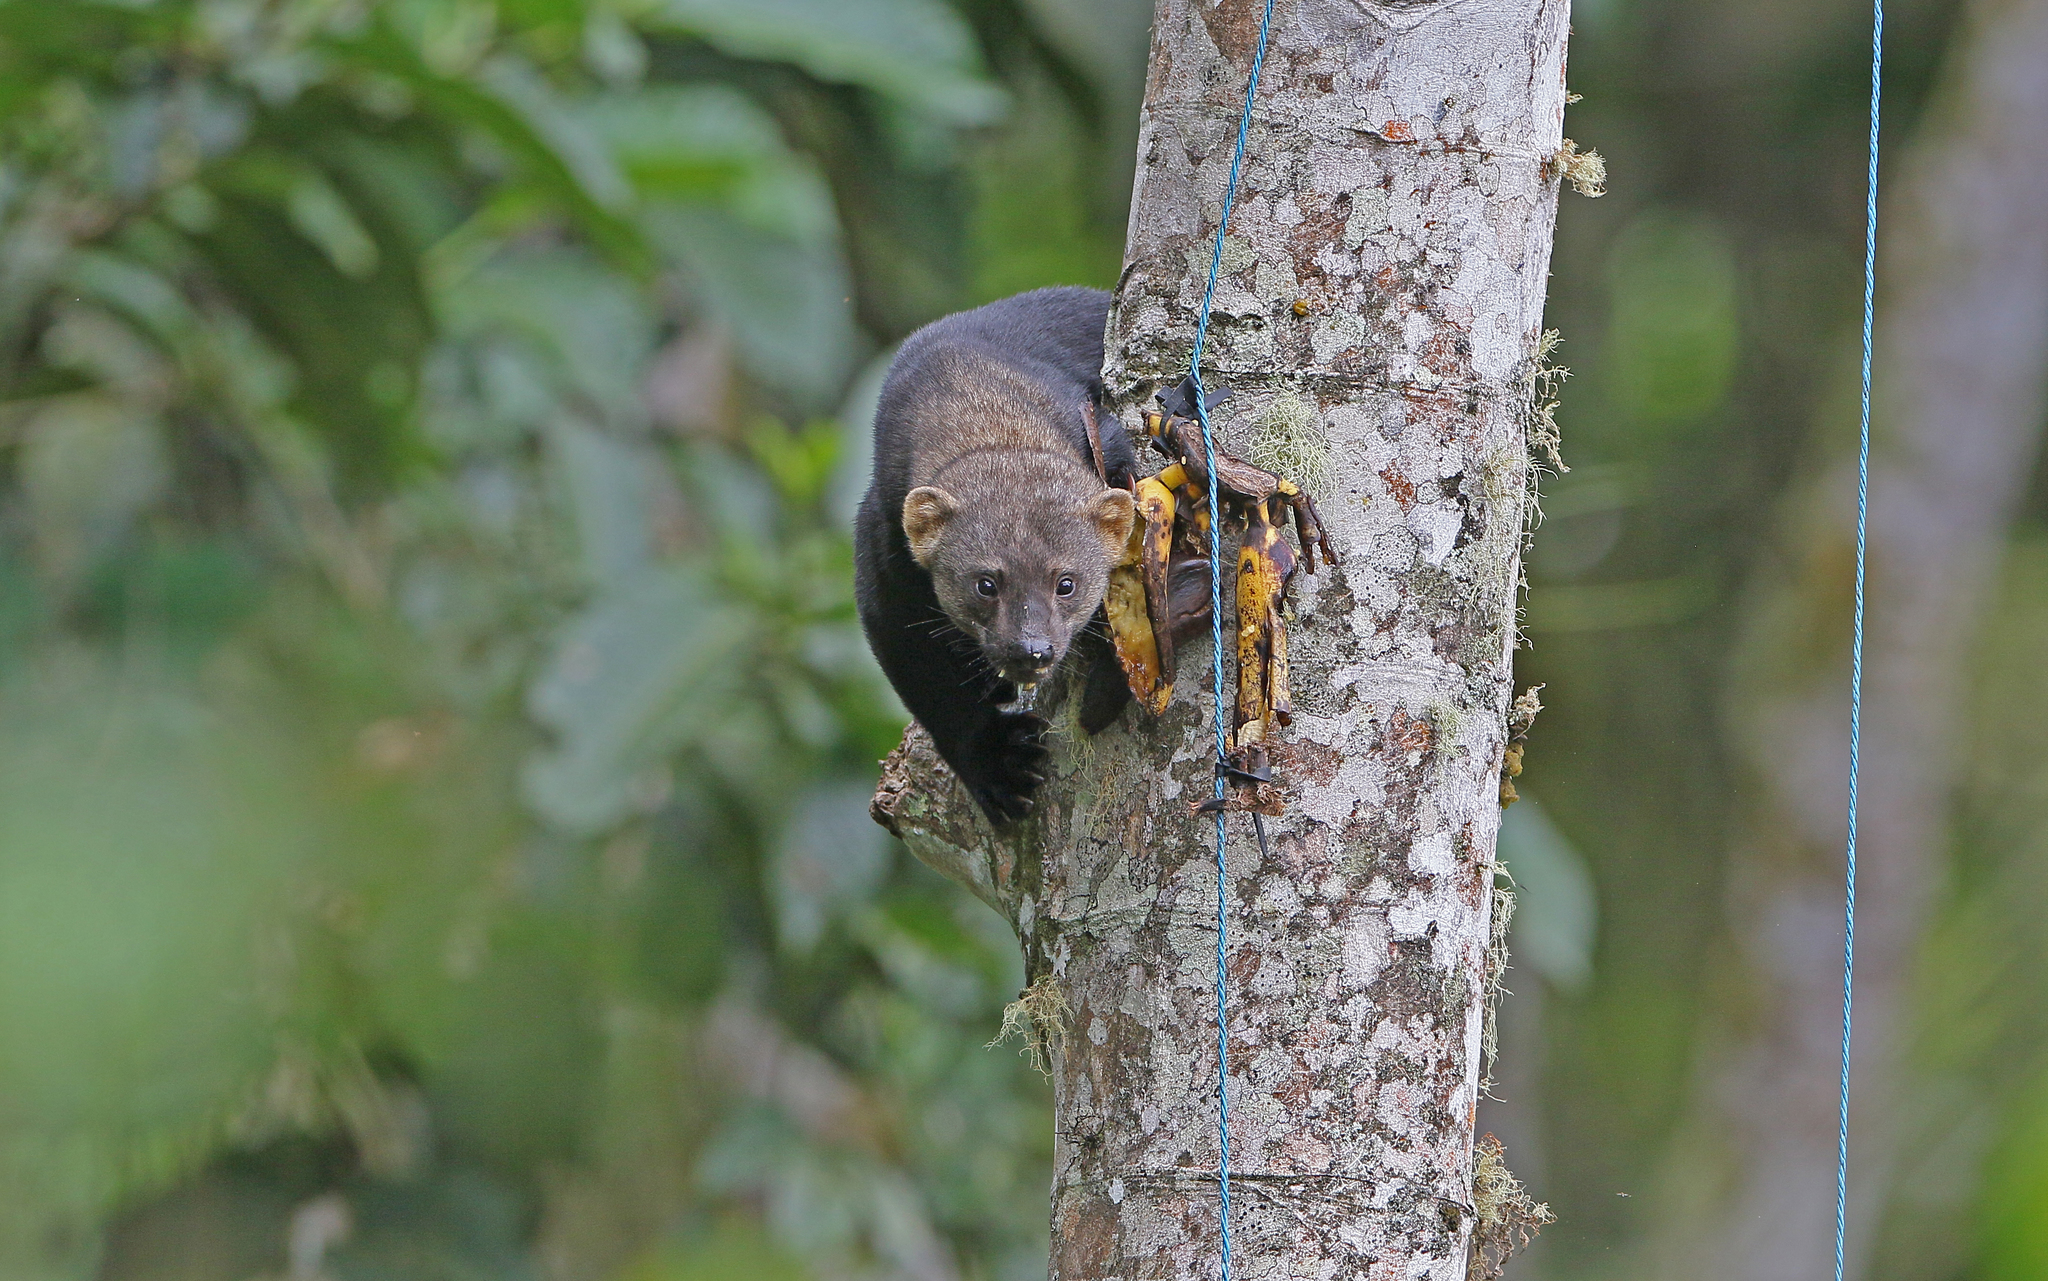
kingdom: Animalia
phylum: Chordata
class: Mammalia
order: Carnivora
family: Mustelidae
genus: Eira
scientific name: Eira barbara
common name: Tayra
